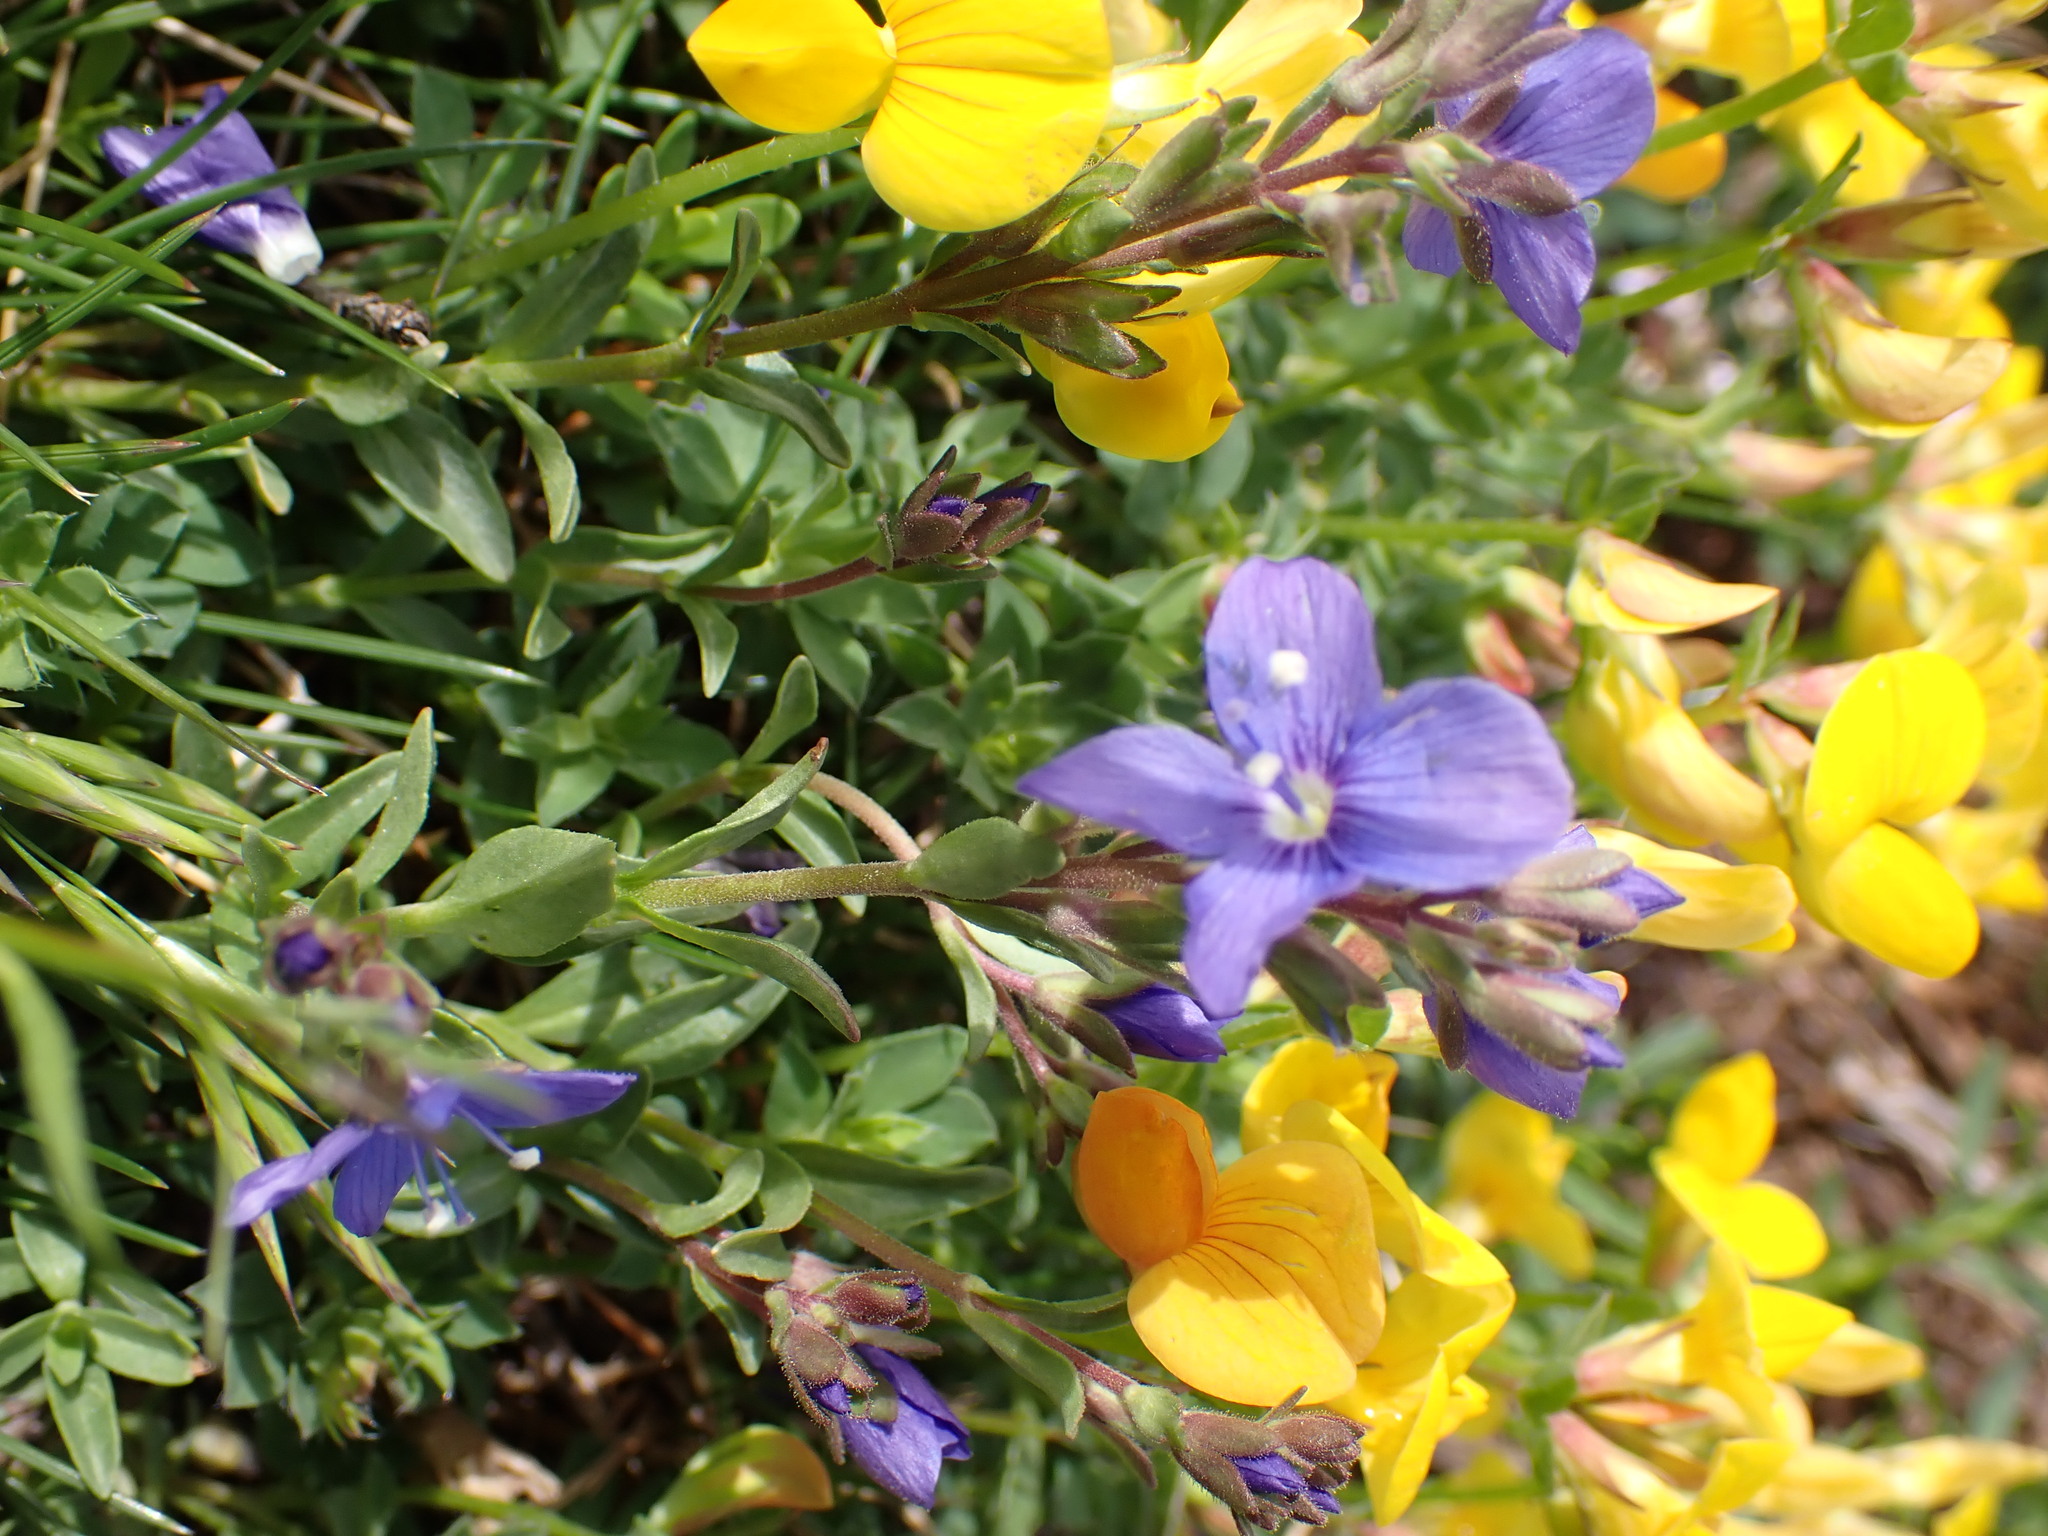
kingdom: Plantae
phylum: Tracheophyta
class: Magnoliopsida
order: Lamiales
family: Plantaginaceae
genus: Veronica
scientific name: Veronica fruticans
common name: Rock speedwell
